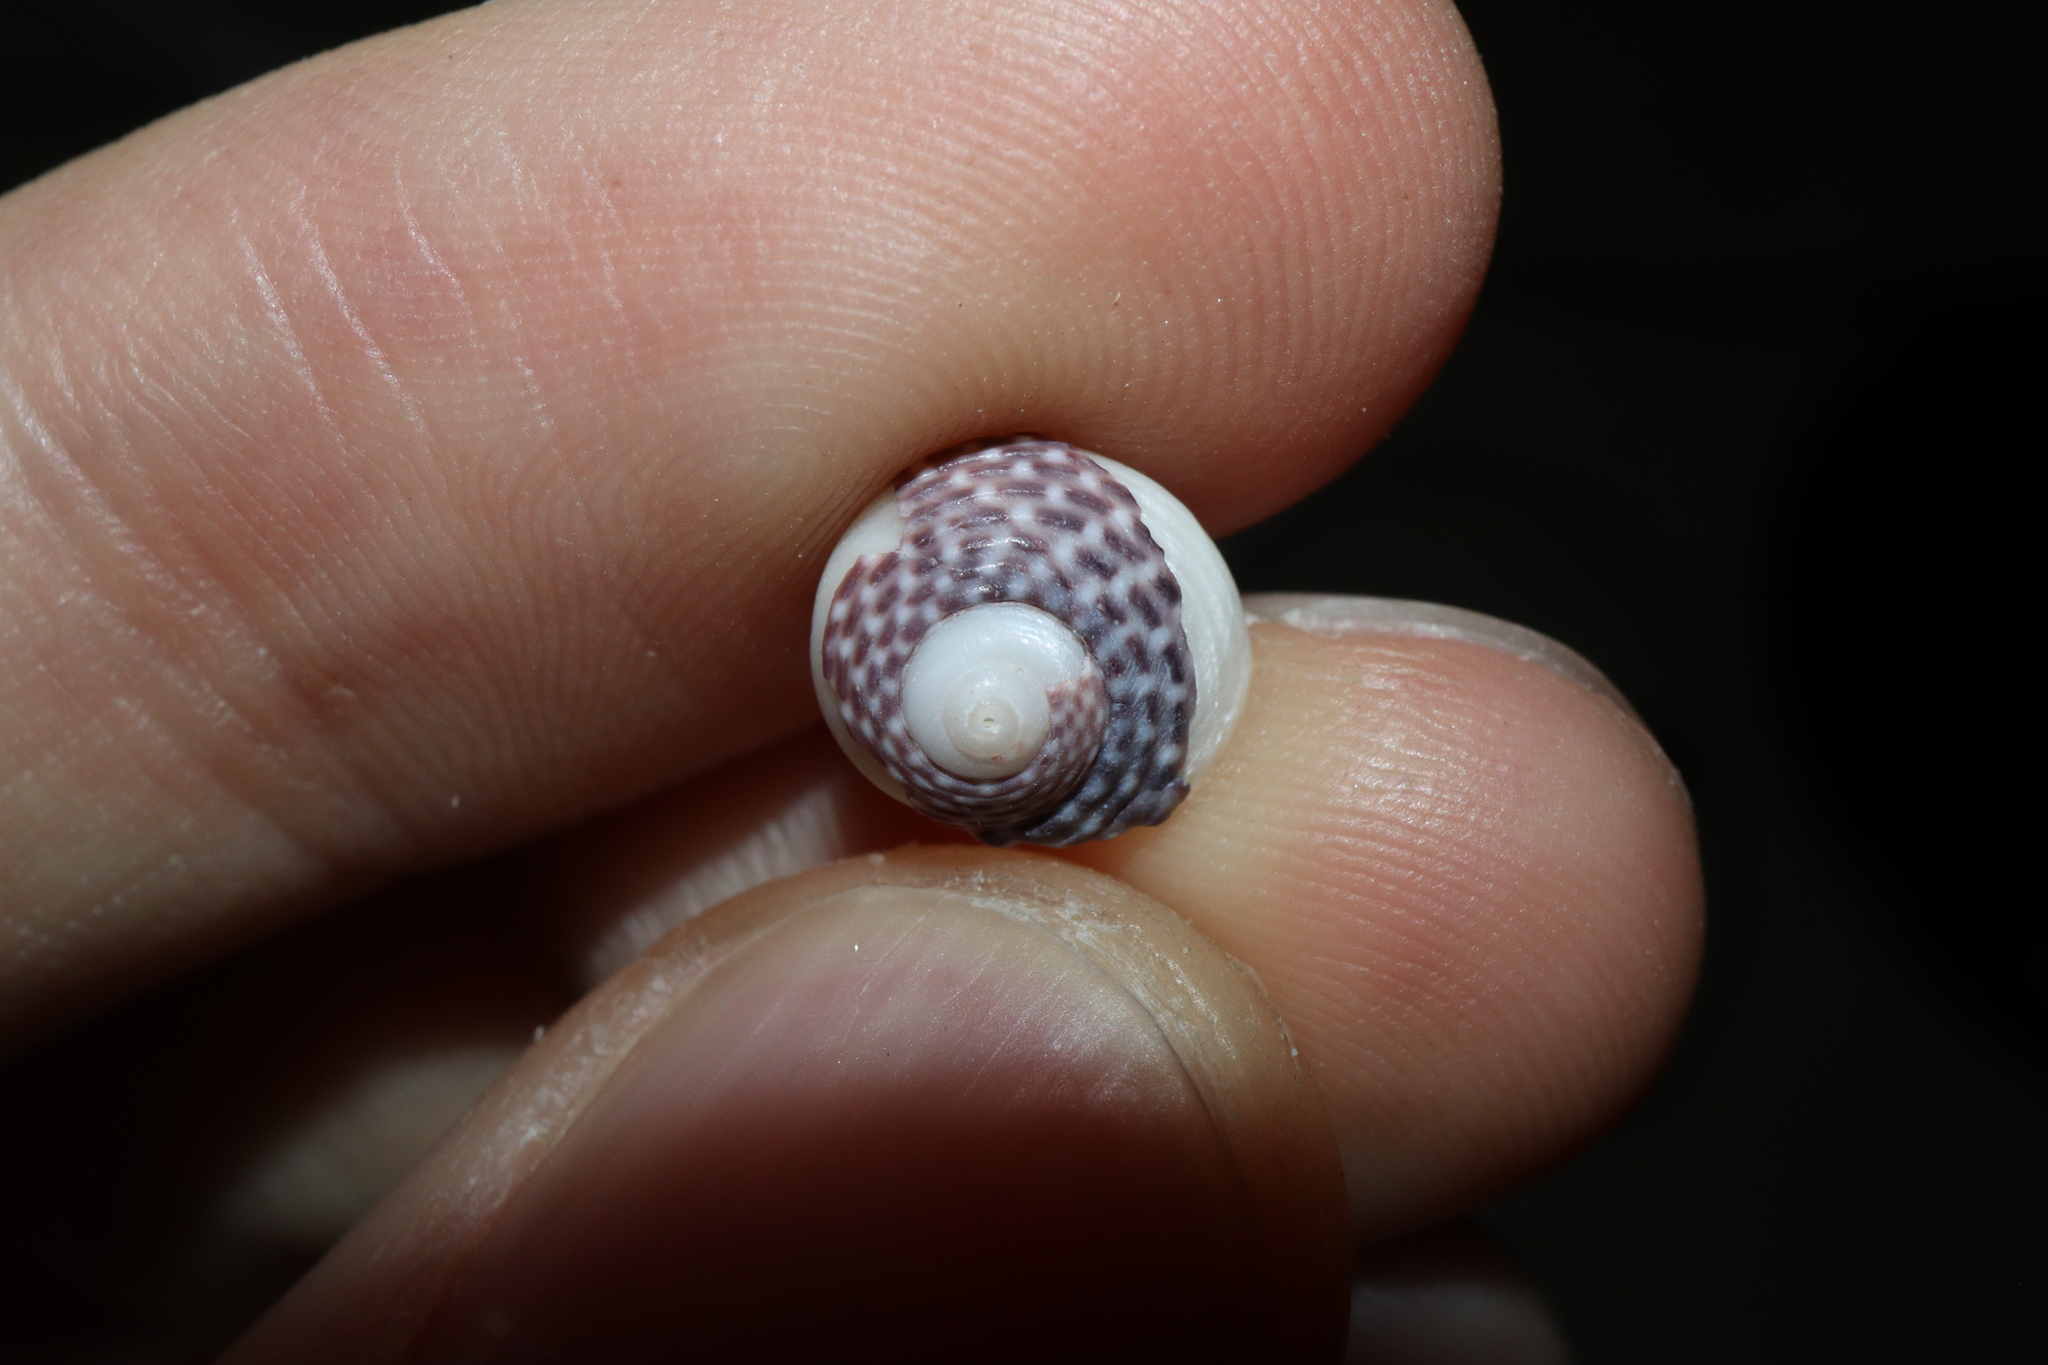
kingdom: Animalia
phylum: Mollusca
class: Gastropoda
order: Trochida
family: Trochidae
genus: Diloma
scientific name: Diloma concameratum
